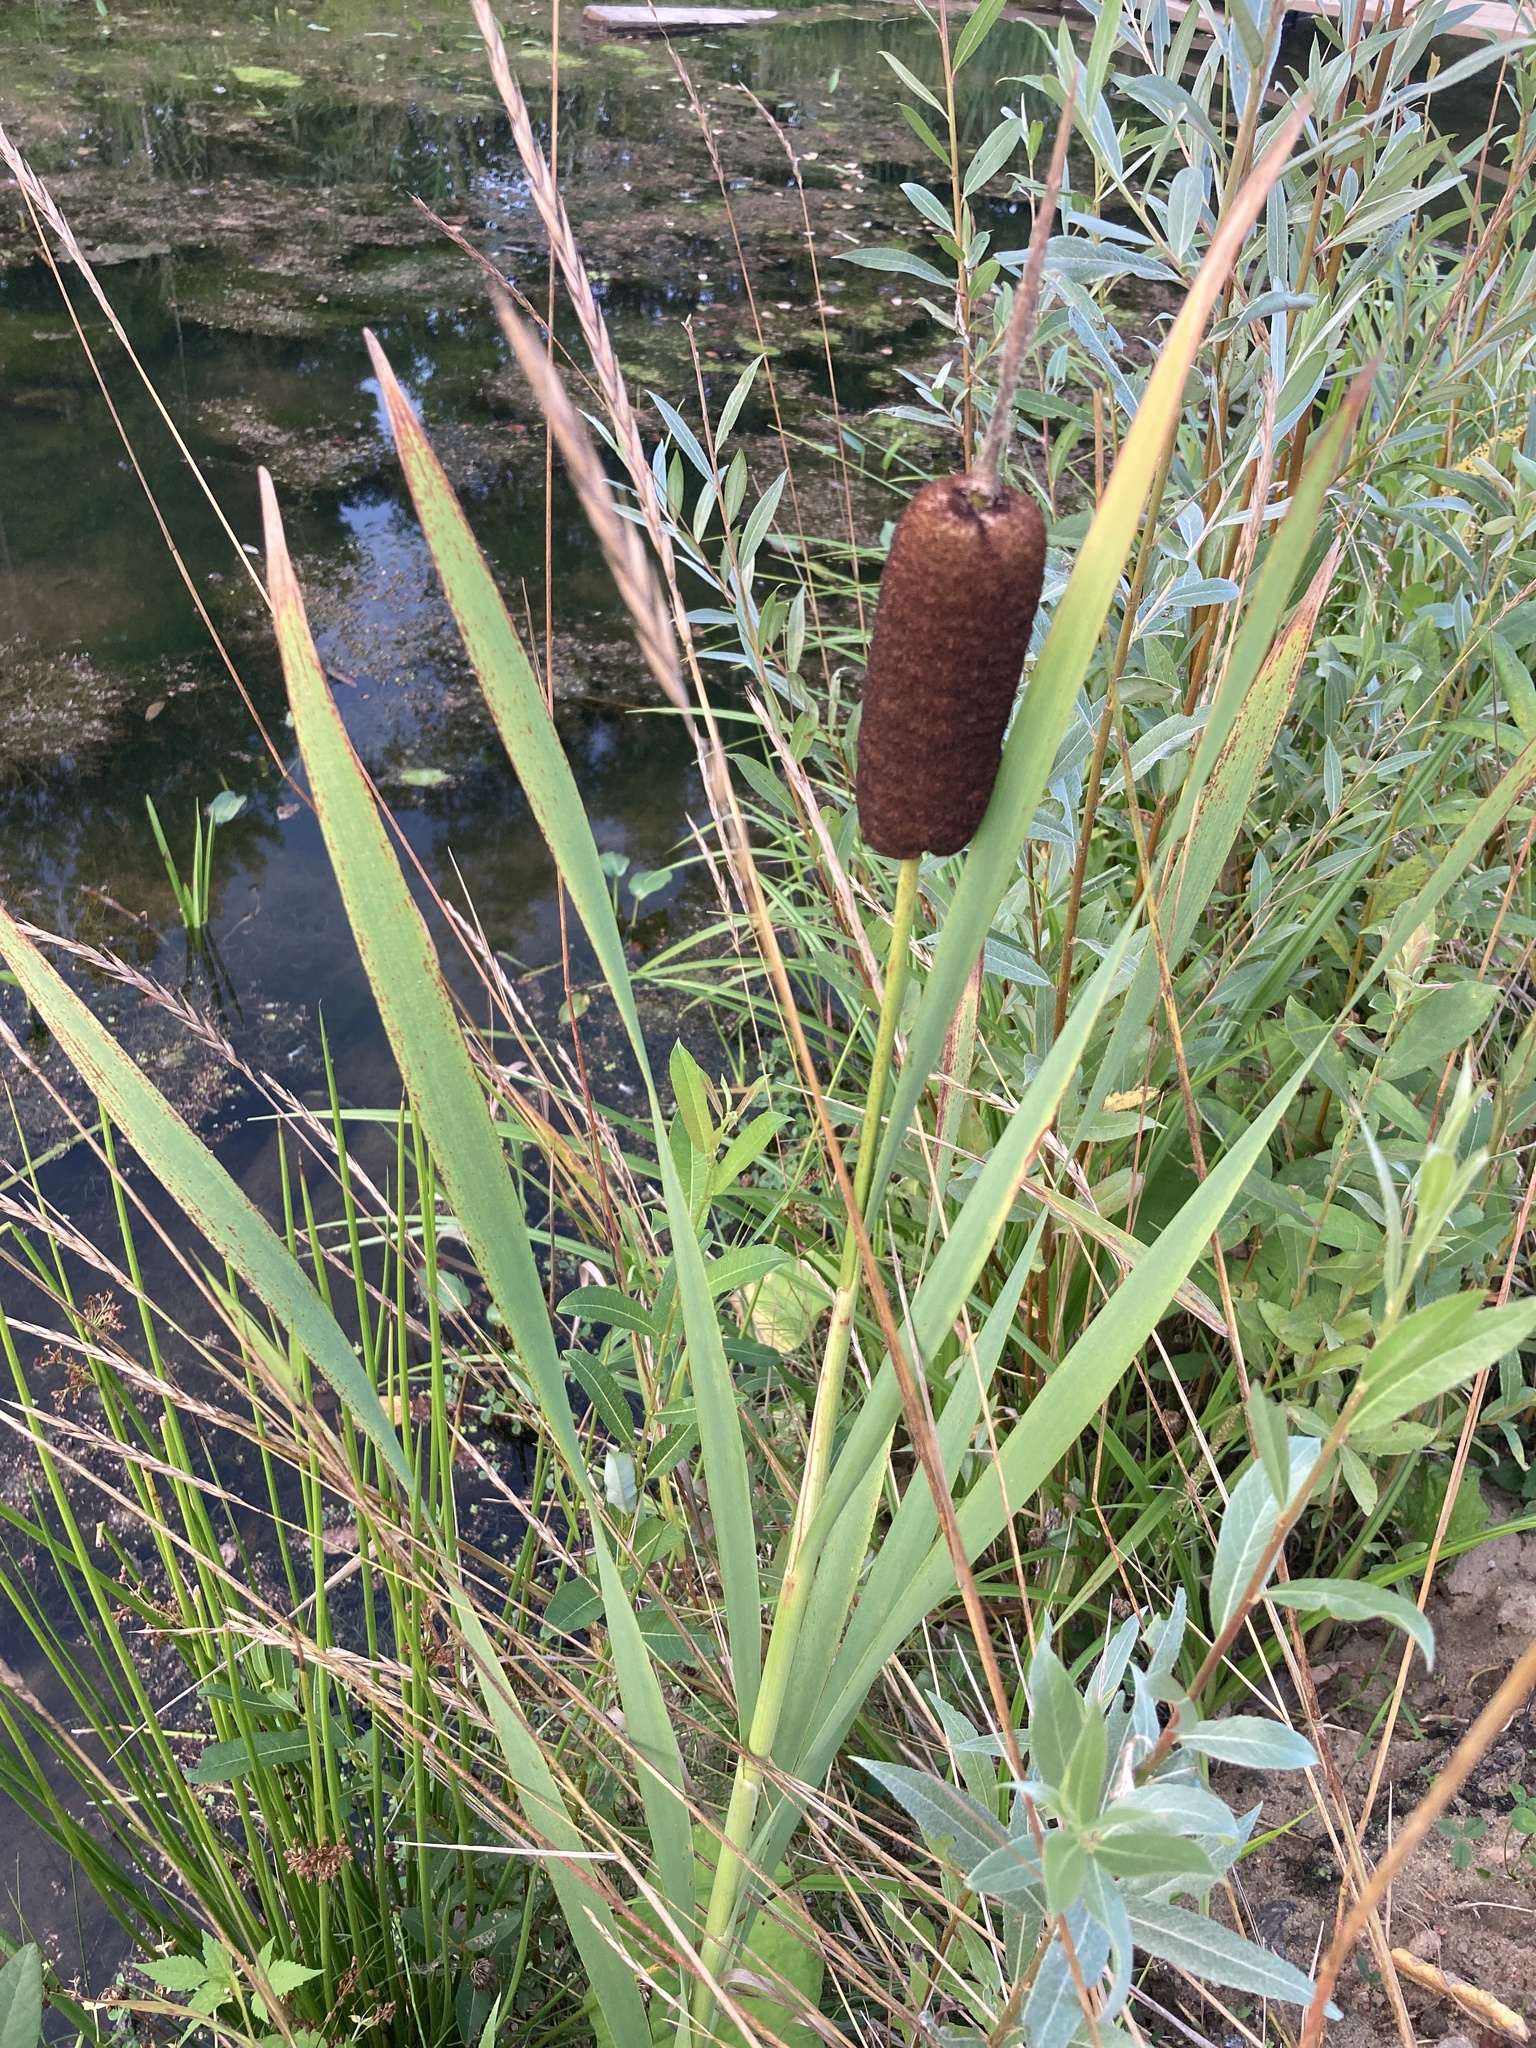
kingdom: Plantae
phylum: Tracheophyta
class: Liliopsida
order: Poales
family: Typhaceae
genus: Typha
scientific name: Typha latifolia
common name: Broadleaf cattail
